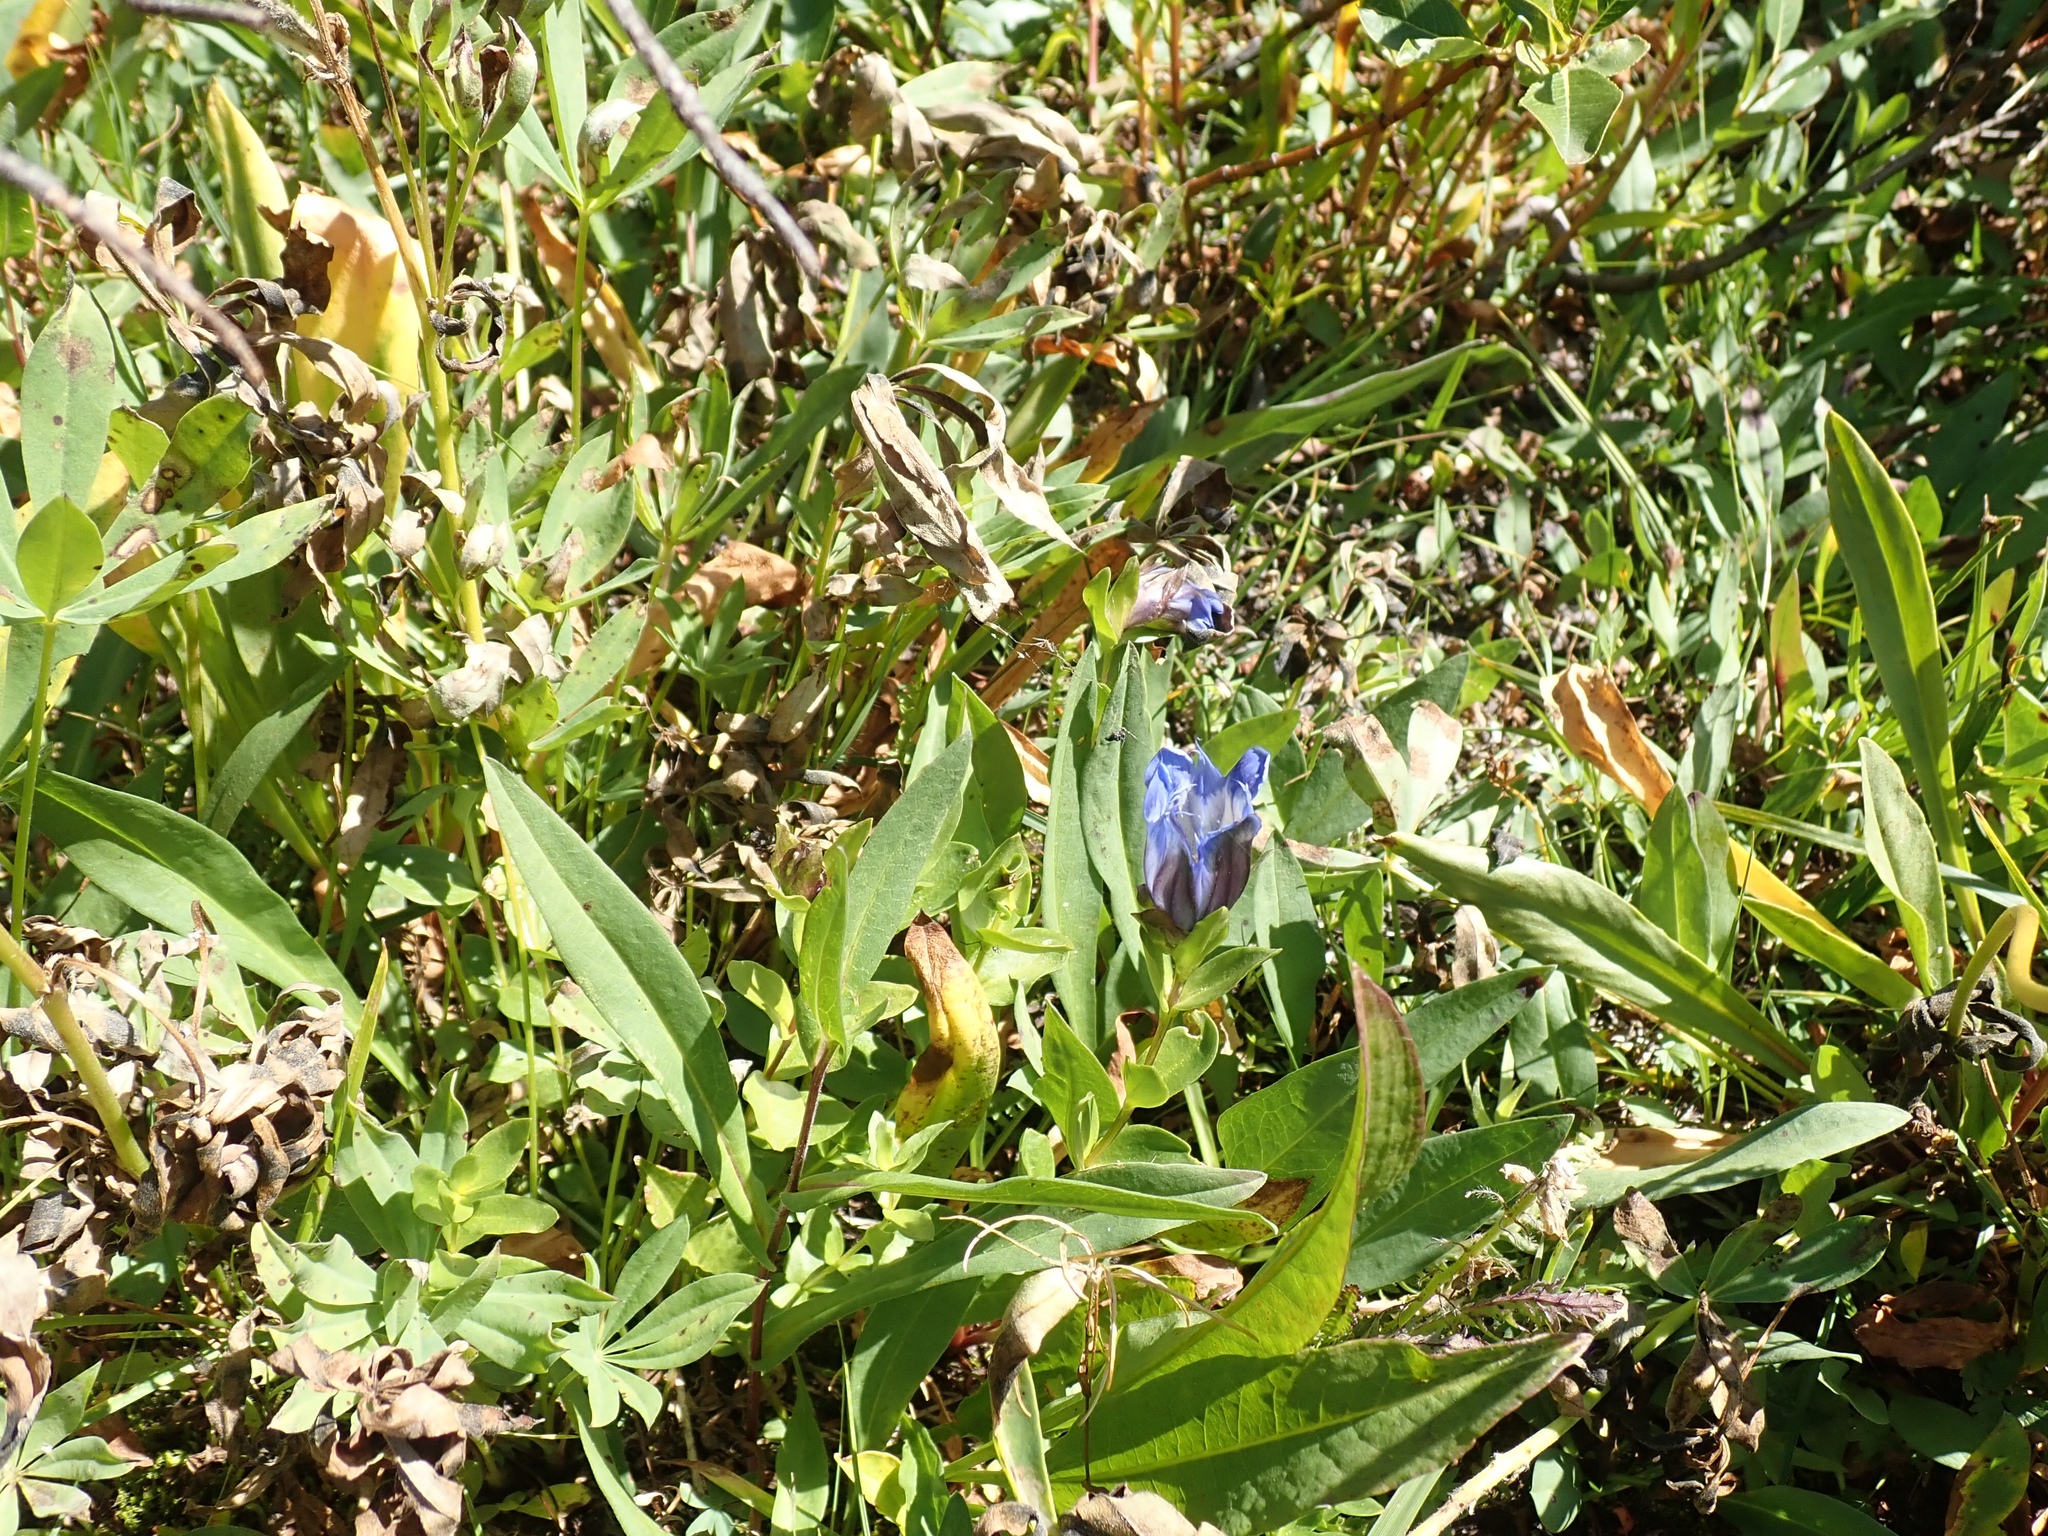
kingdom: Plantae
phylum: Tracheophyta
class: Magnoliopsida
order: Gentianales
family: Gentianaceae
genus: Gentiana
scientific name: Gentiana calycosa
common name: Rainier pleated gentian
